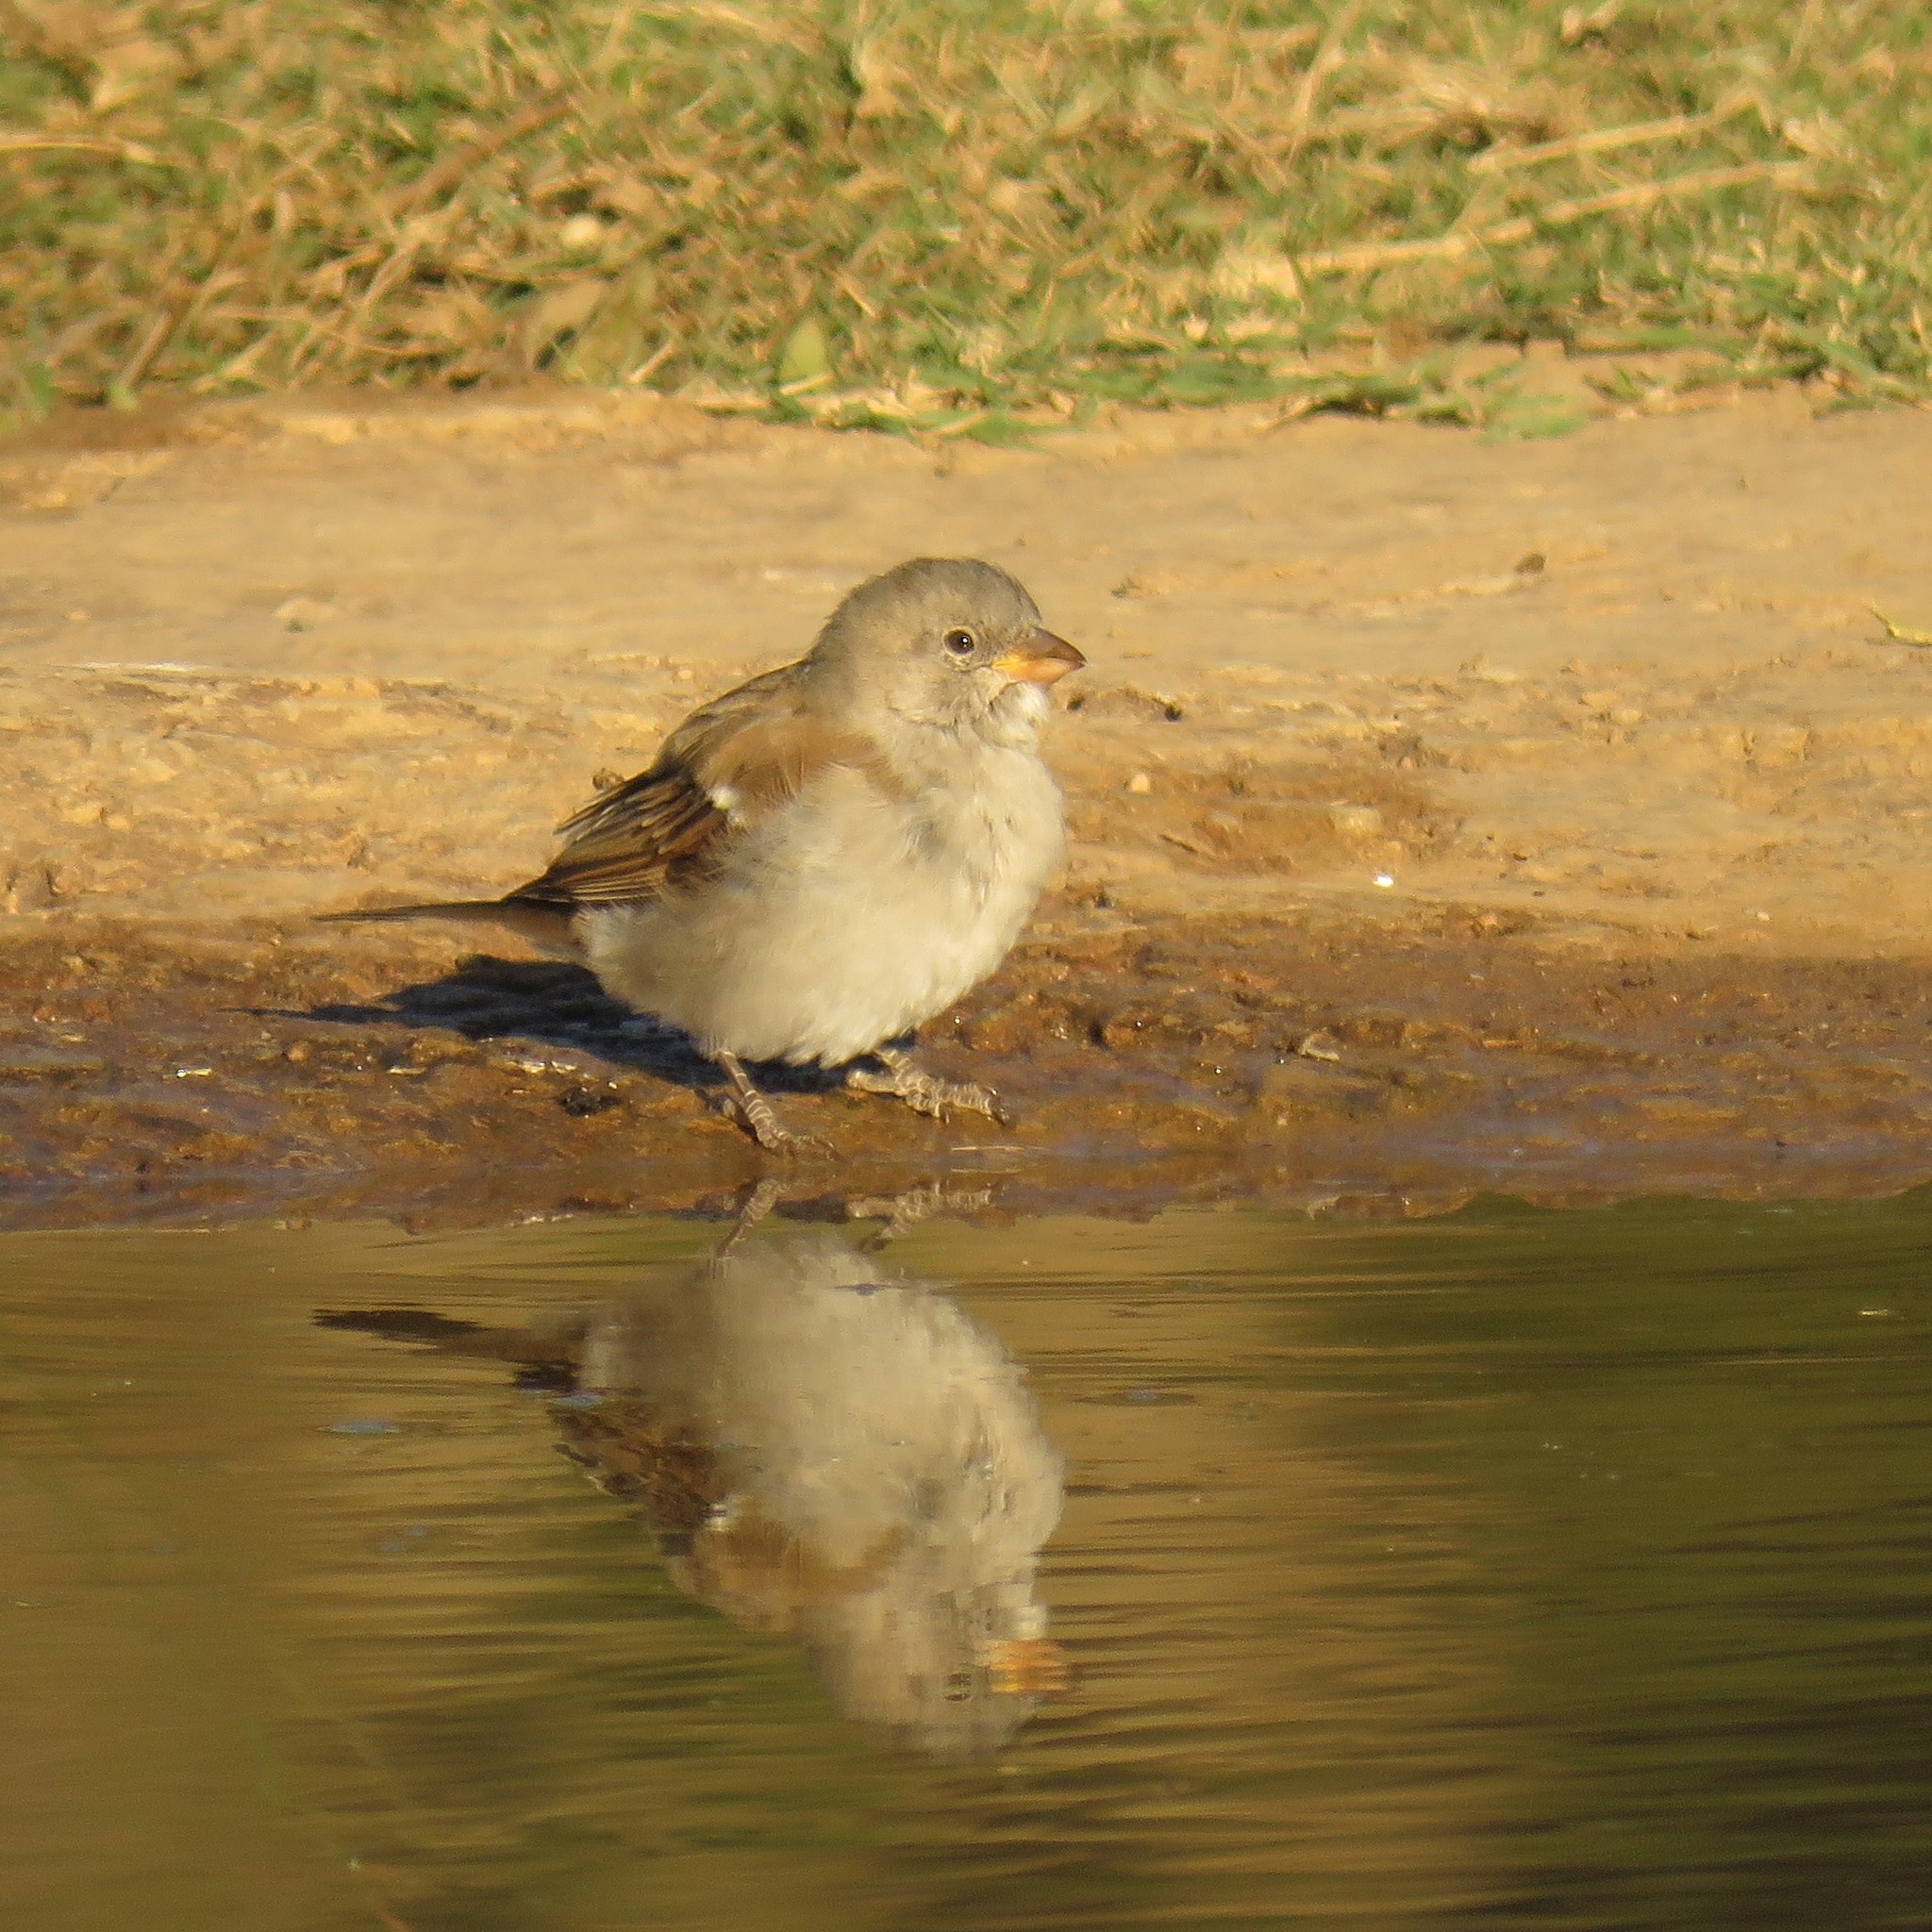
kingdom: Animalia
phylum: Chordata
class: Aves
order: Passeriformes
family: Passeridae
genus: Passer
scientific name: Passer diffusus
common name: Southern grey-headed sparrow
